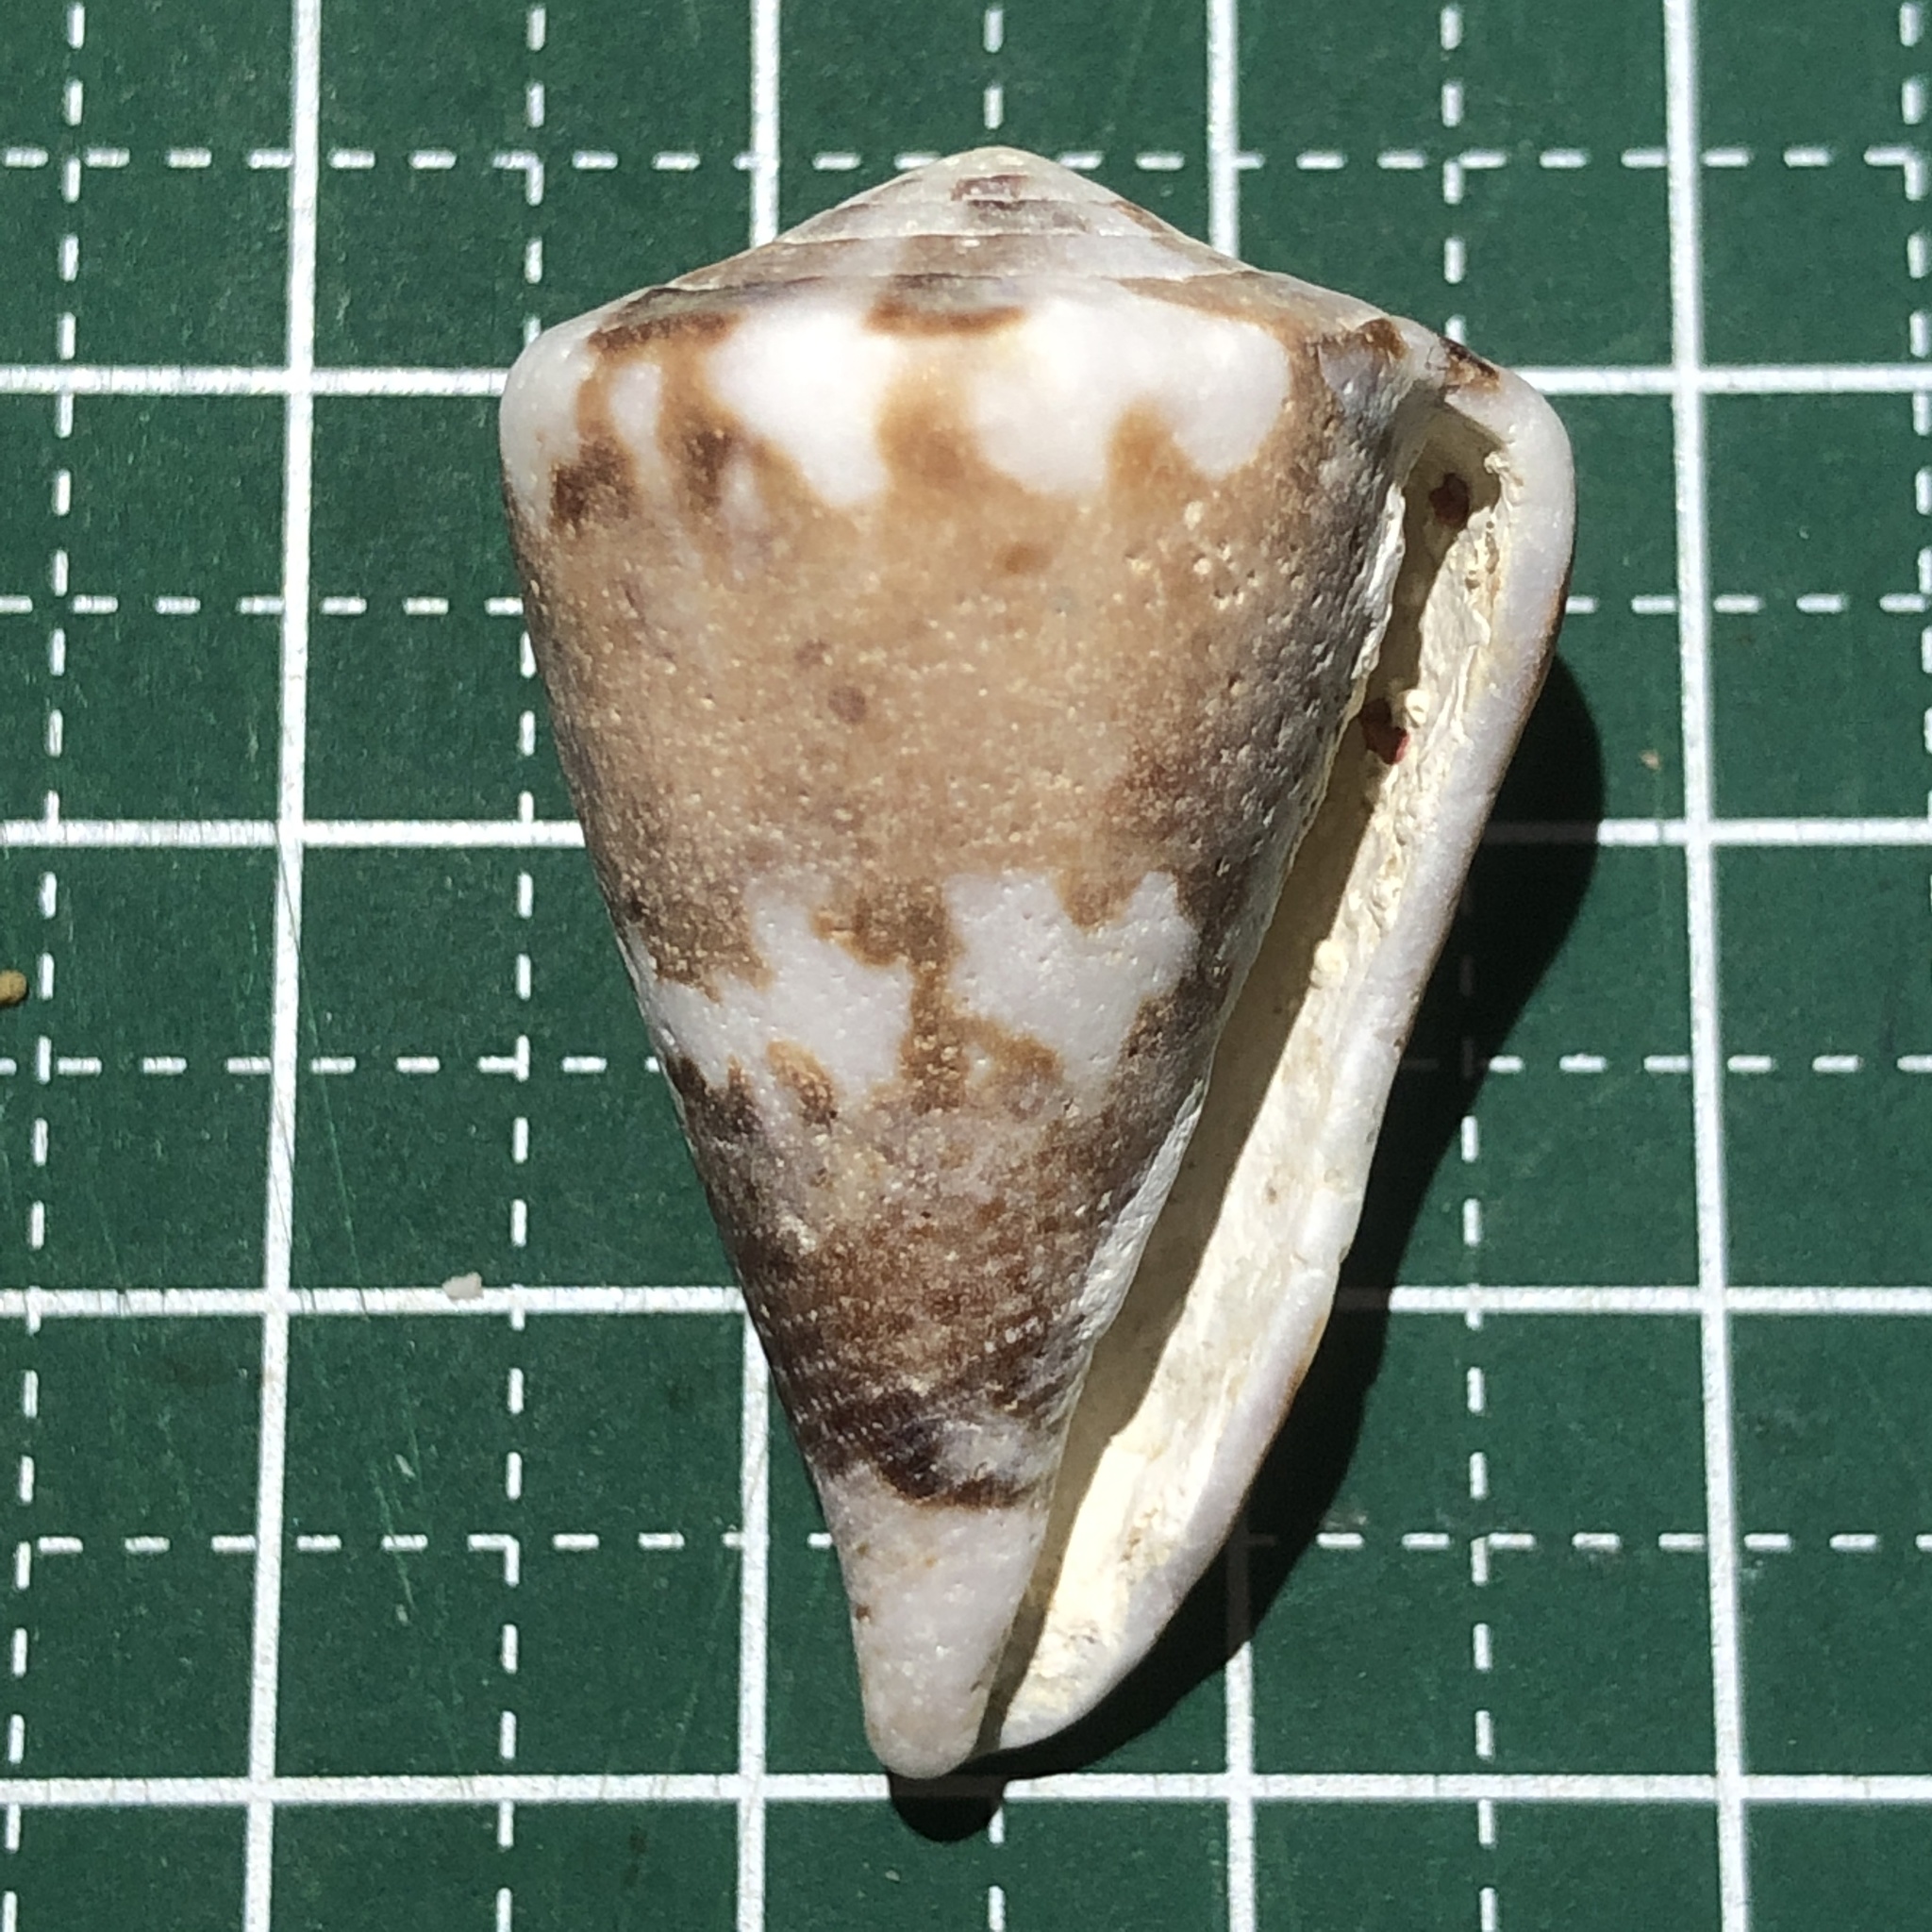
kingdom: Animalia
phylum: Mollusca
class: Gastropoda
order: Neogastropoda
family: Conidae
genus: Conus
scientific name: Conus capitaneus
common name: Captain cone
